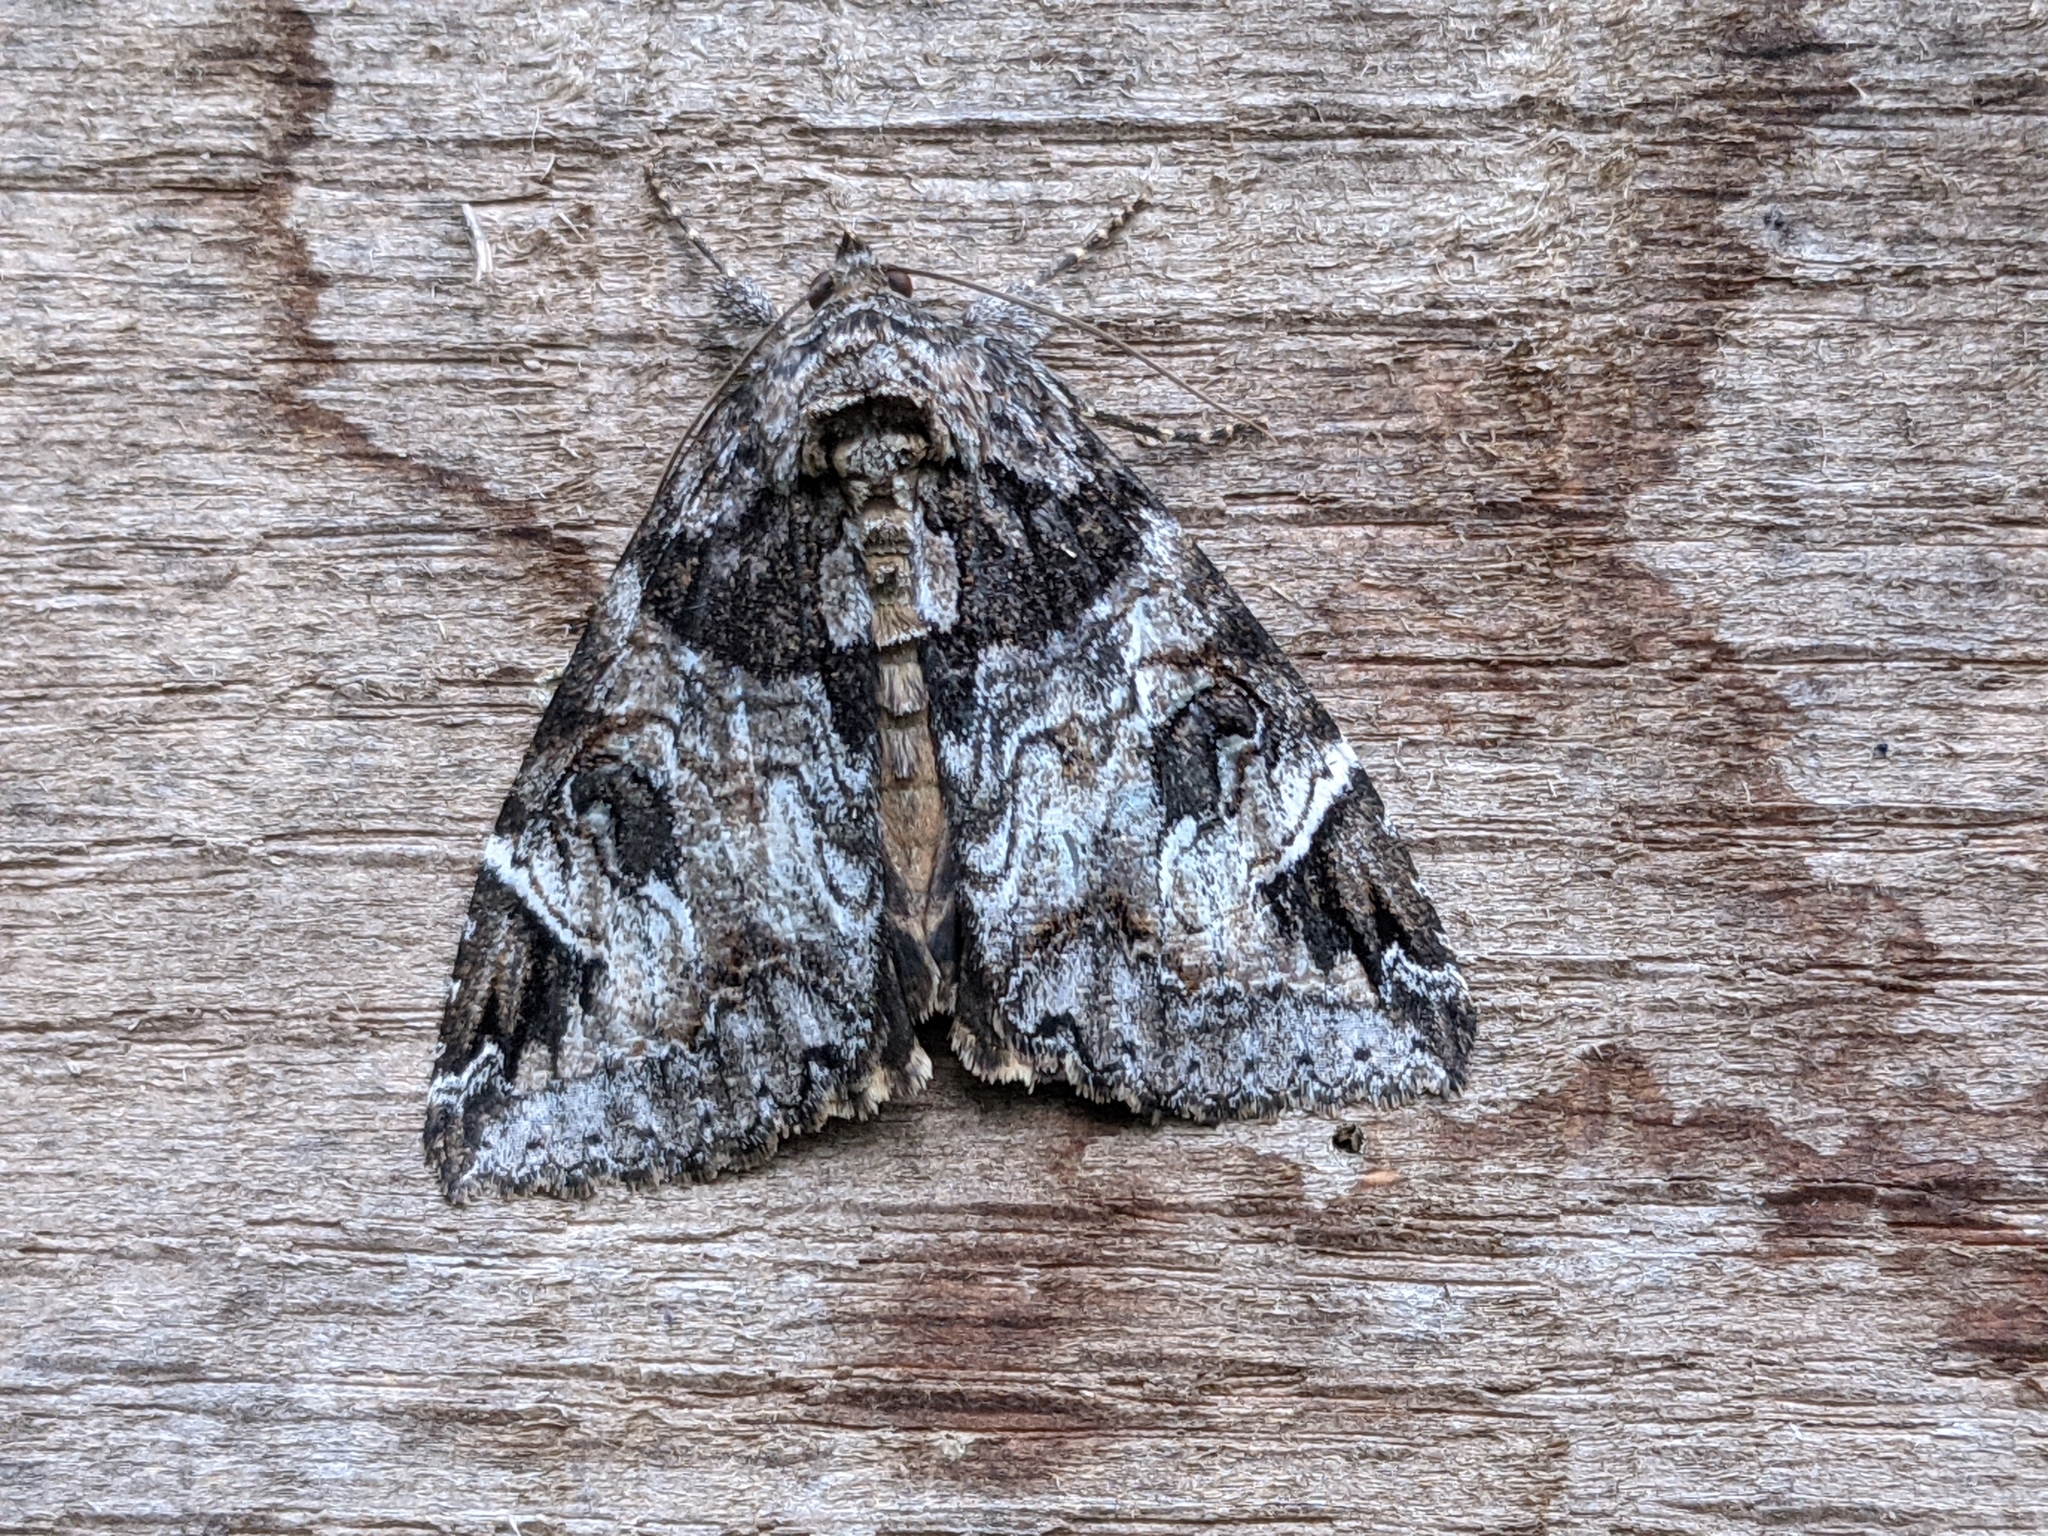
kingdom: Animalia
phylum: Arthropoda
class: Insecta
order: Lepidoptera
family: Erebidae
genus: Euparthenos
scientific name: Euparthenos nubilis
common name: Locust underwing
